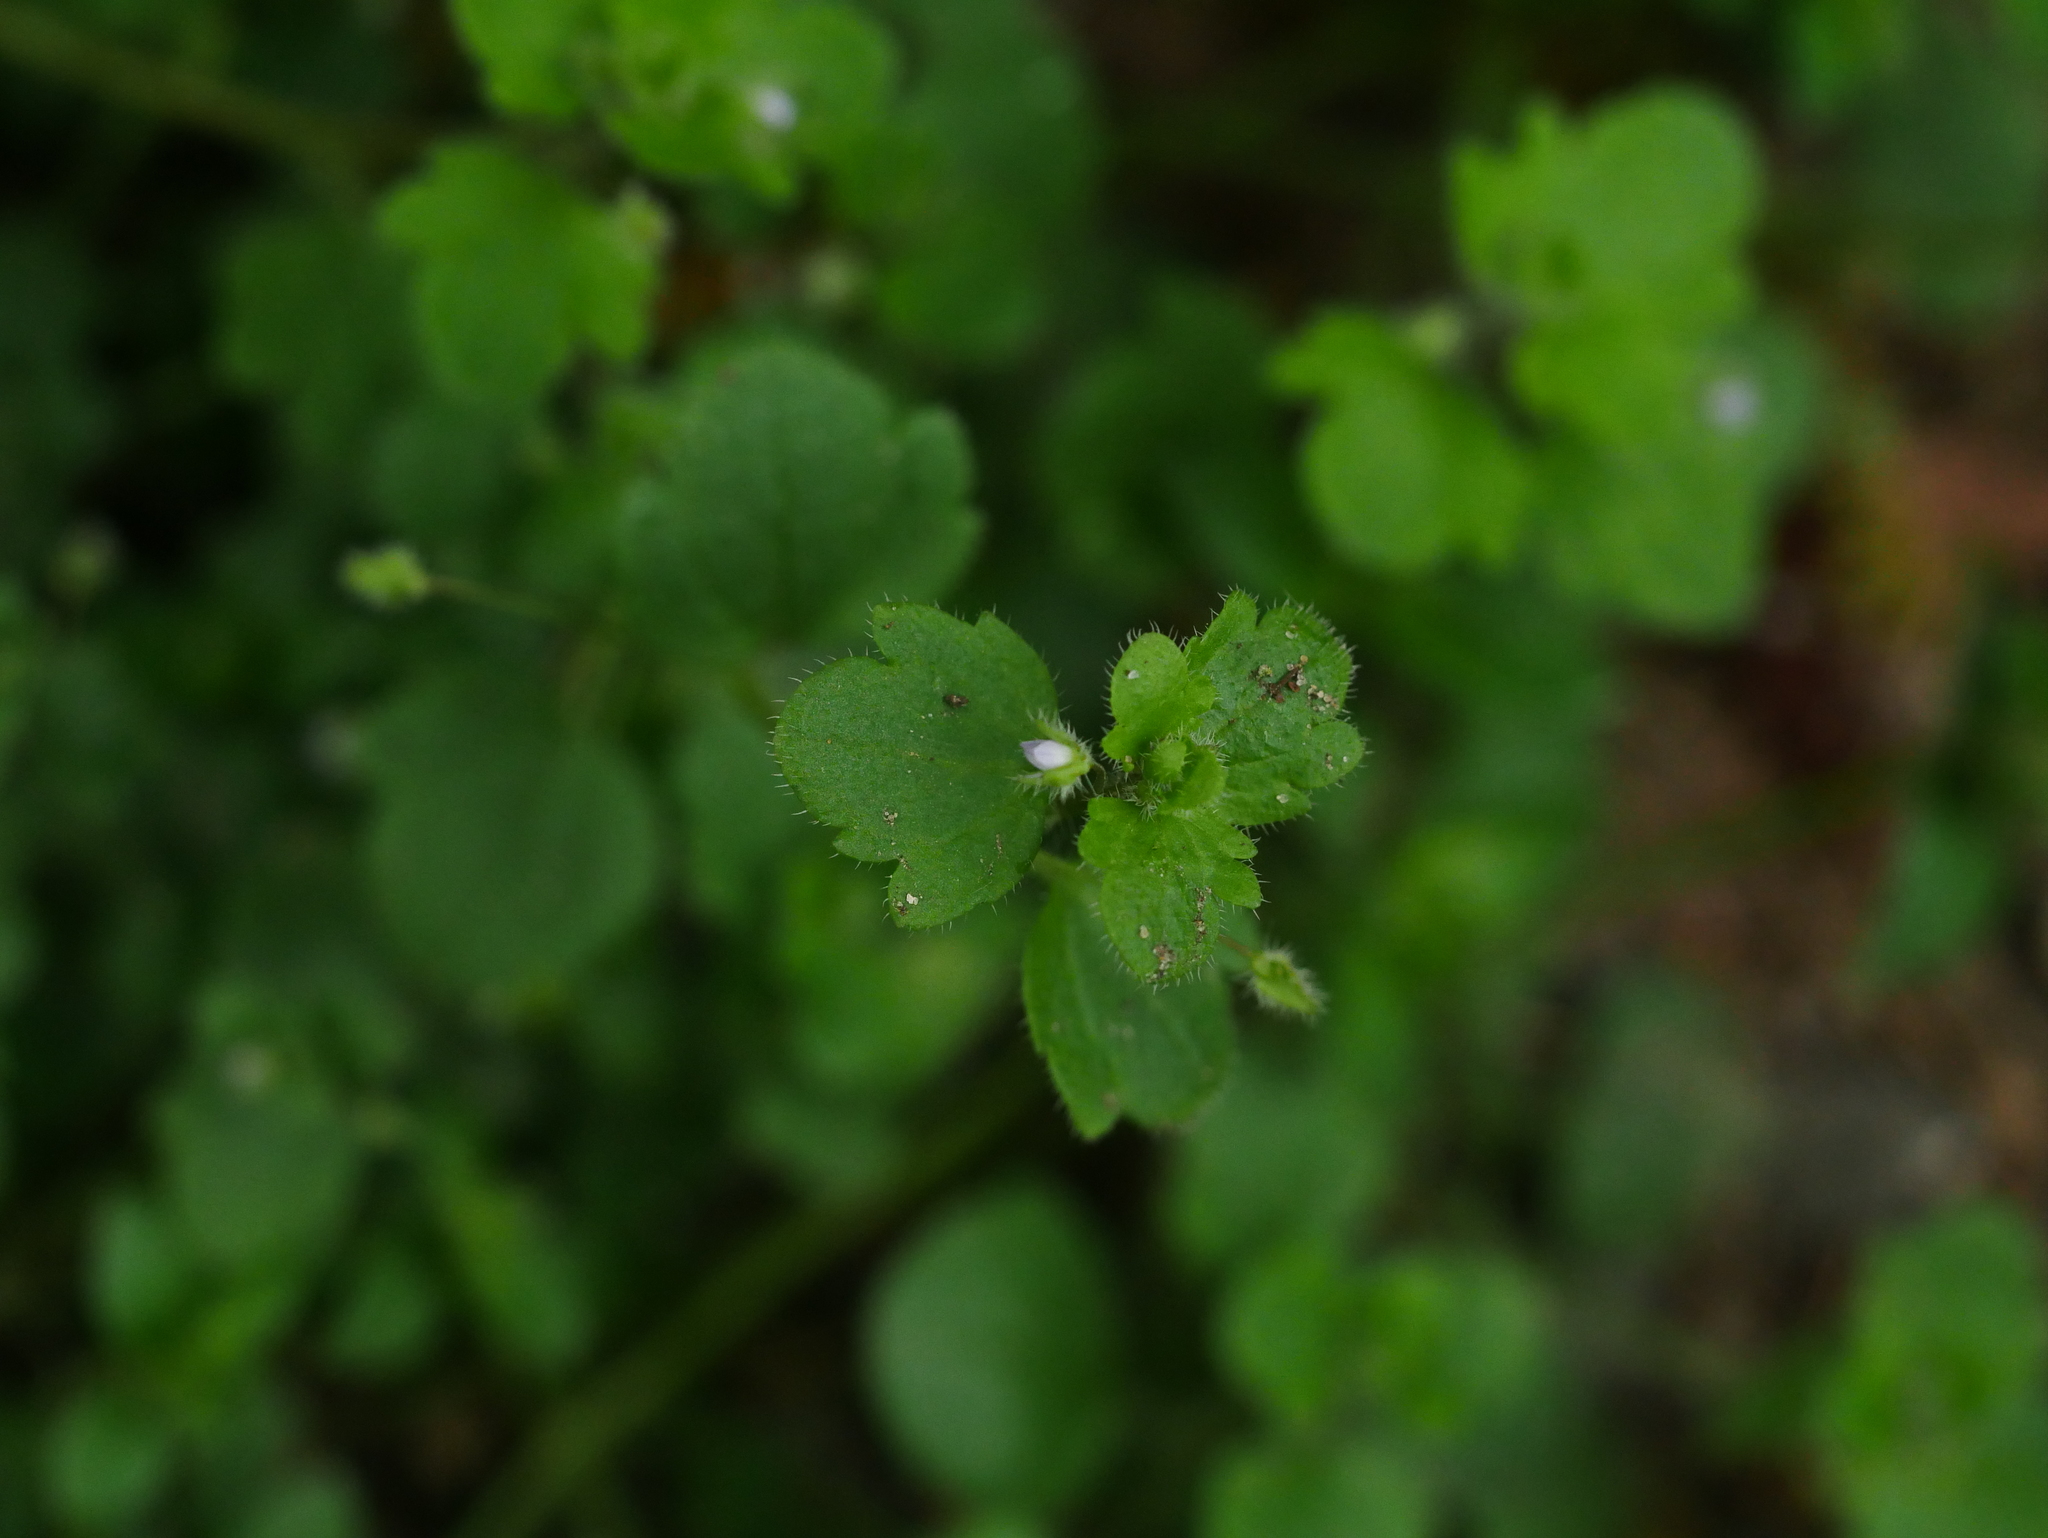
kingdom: Plantae
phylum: Tracheophyta
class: Magnoliopsida
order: Lamiales
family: Plantaginaceae
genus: Veronica
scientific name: Veronica sublobata
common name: False ivy-leaved speedwell
